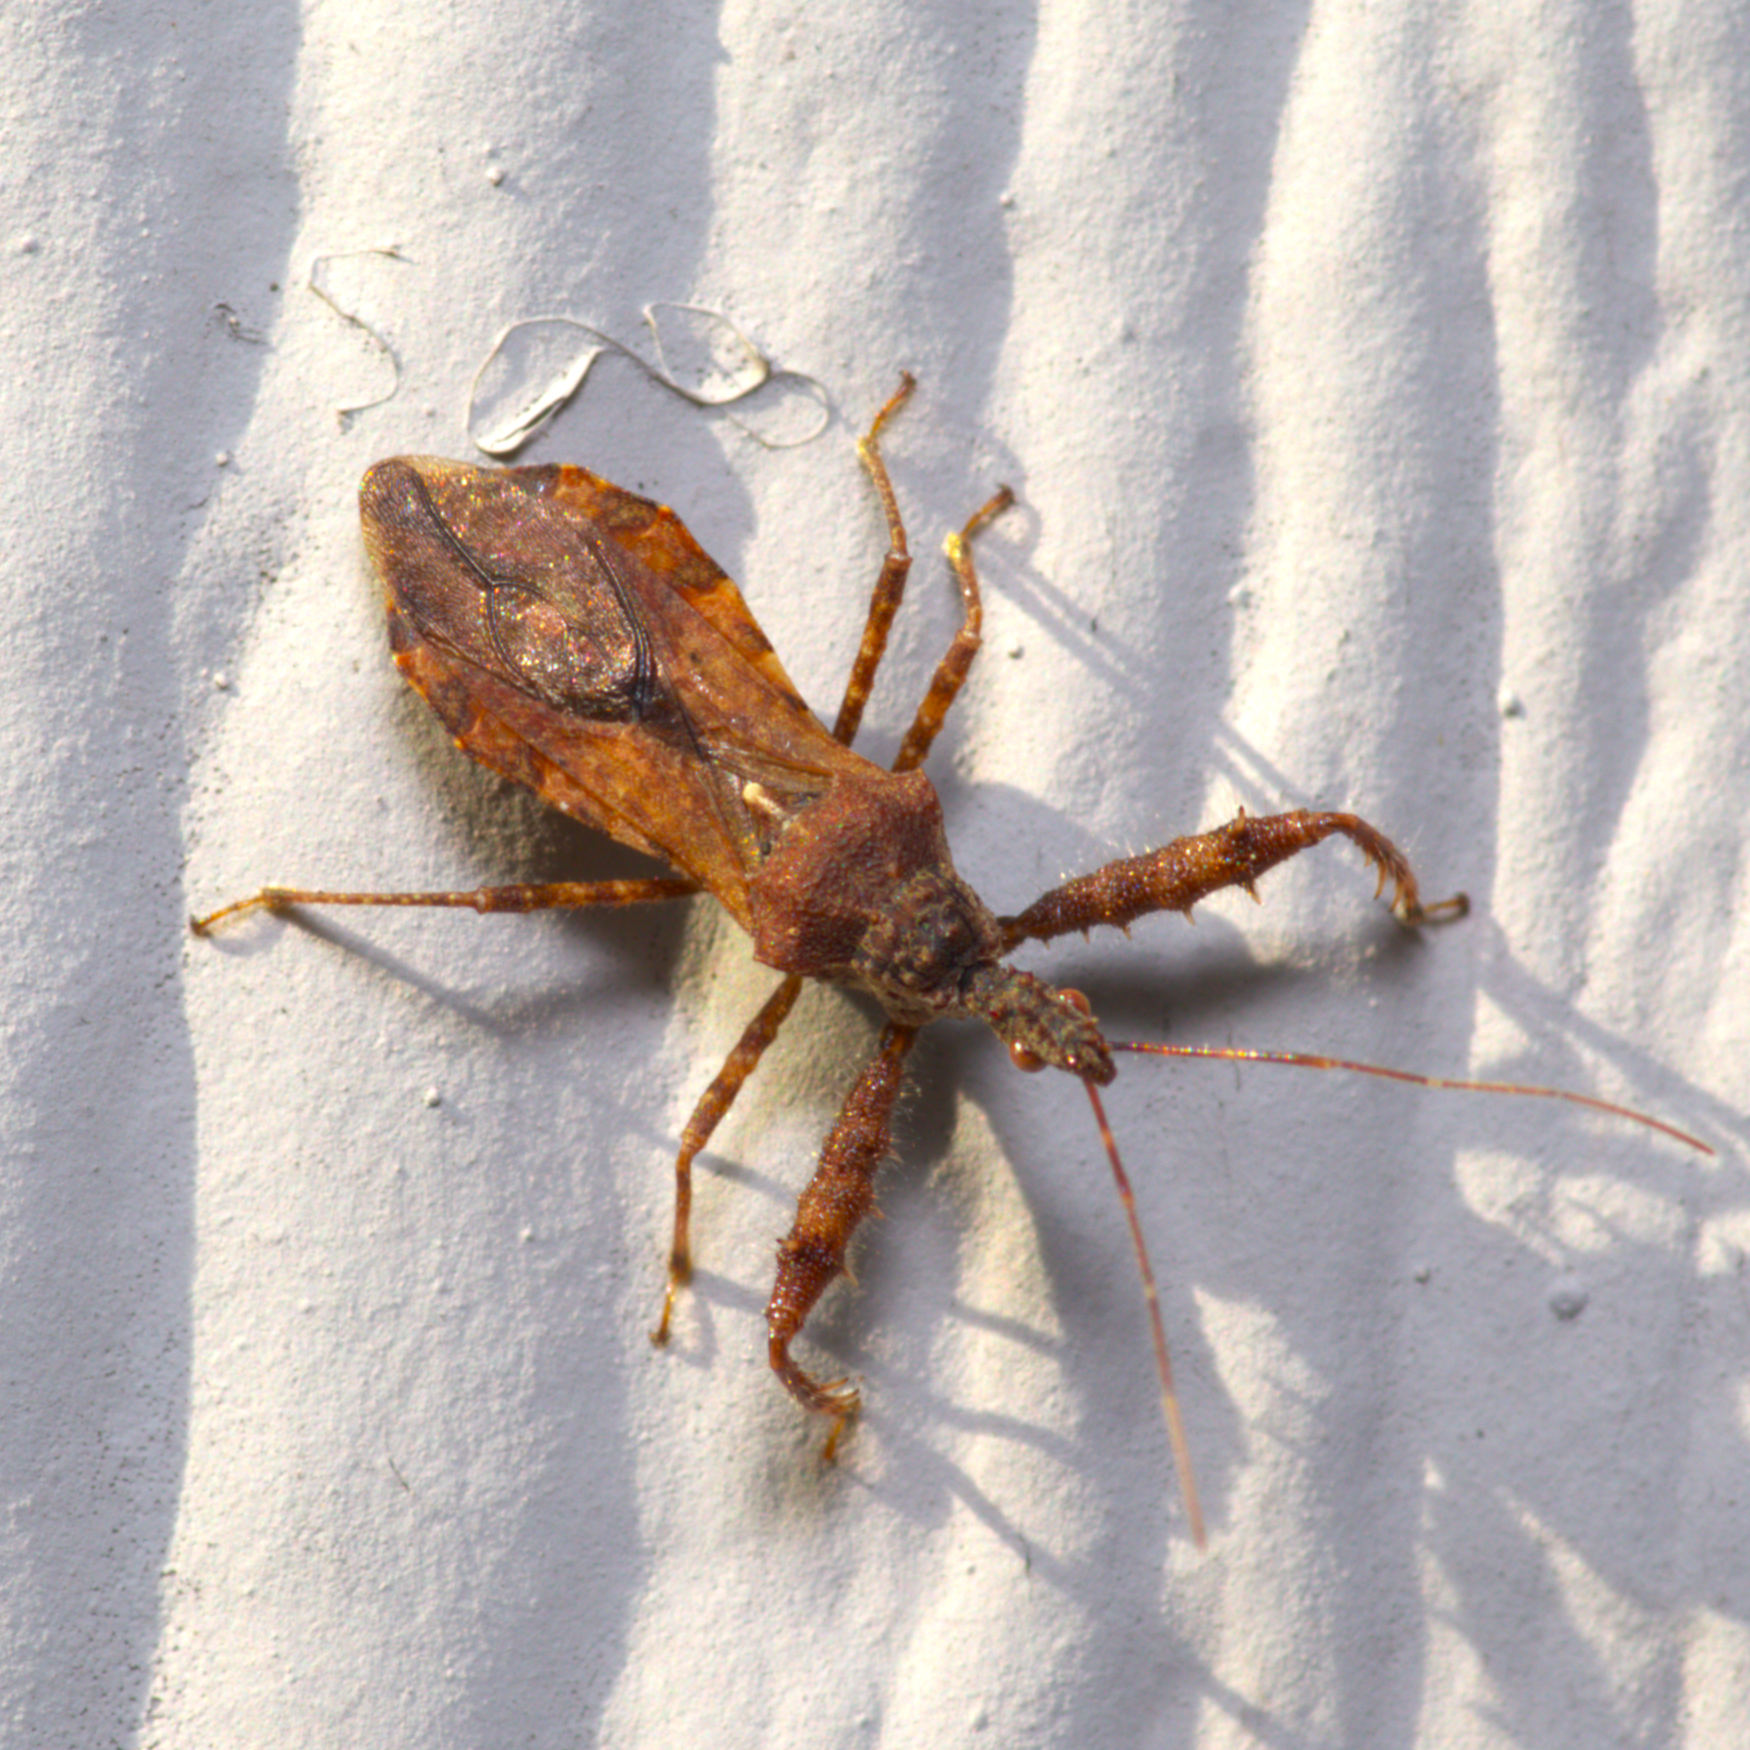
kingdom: Animalia
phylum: Arthropoda
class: Insecta
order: Hemiptera
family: Reduviidae
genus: Sinea
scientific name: Sinea spinipes
